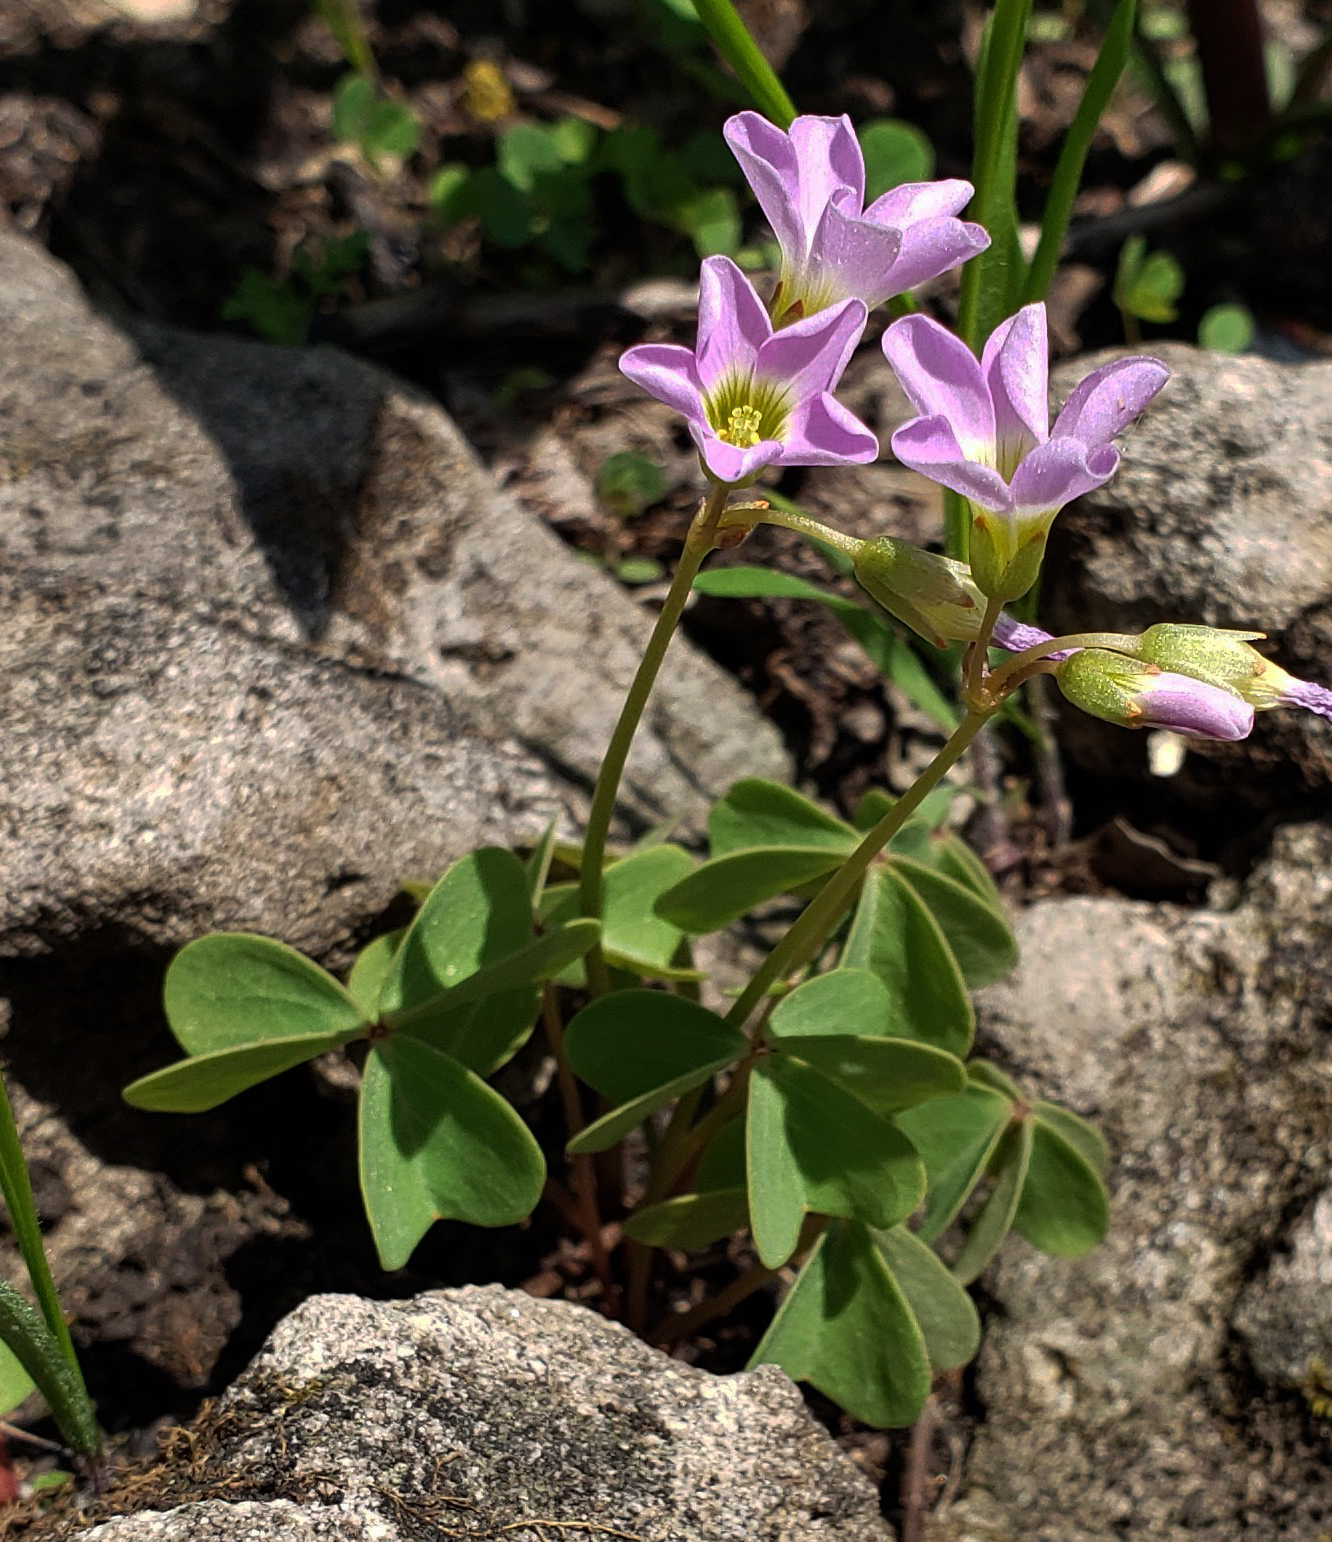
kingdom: Plantae
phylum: Tracheophyta
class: Magnoliopsida
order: Oxalidales
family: Oxalidaceae
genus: Oxalis
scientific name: Oxalis violacea
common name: Violet wood-sorrel
